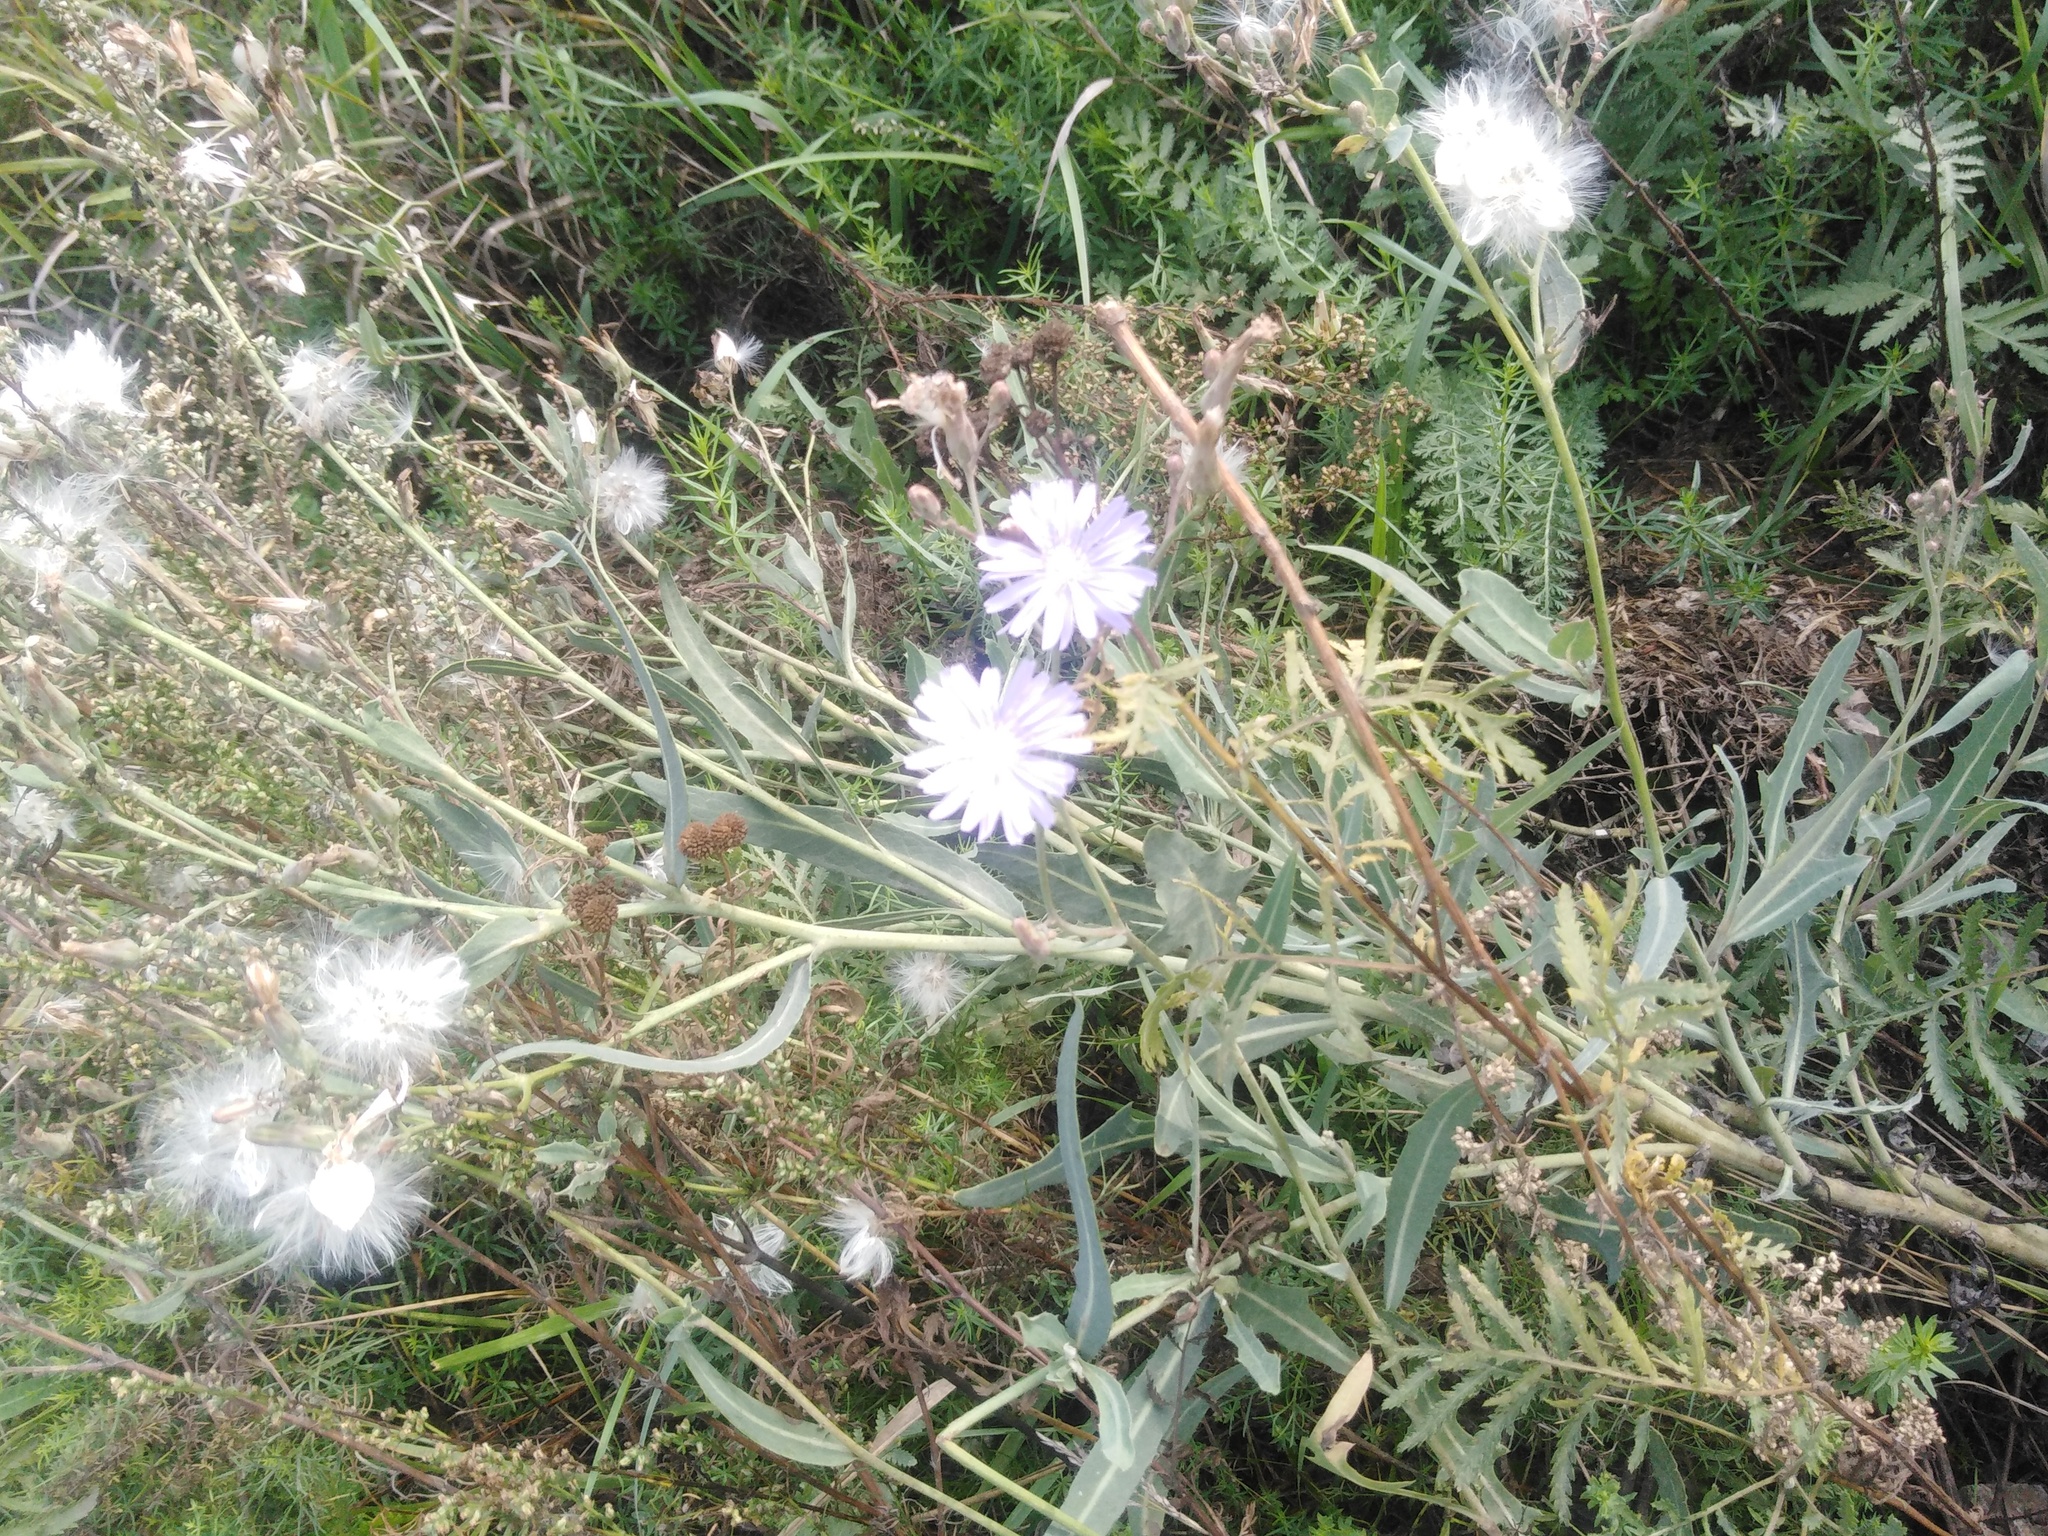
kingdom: Plantae
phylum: Tracheophyta
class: Magnoliopsida
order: Asterales
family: Asteraceae
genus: Lactuca
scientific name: Lactuca tatarica
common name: Blue lettuce
